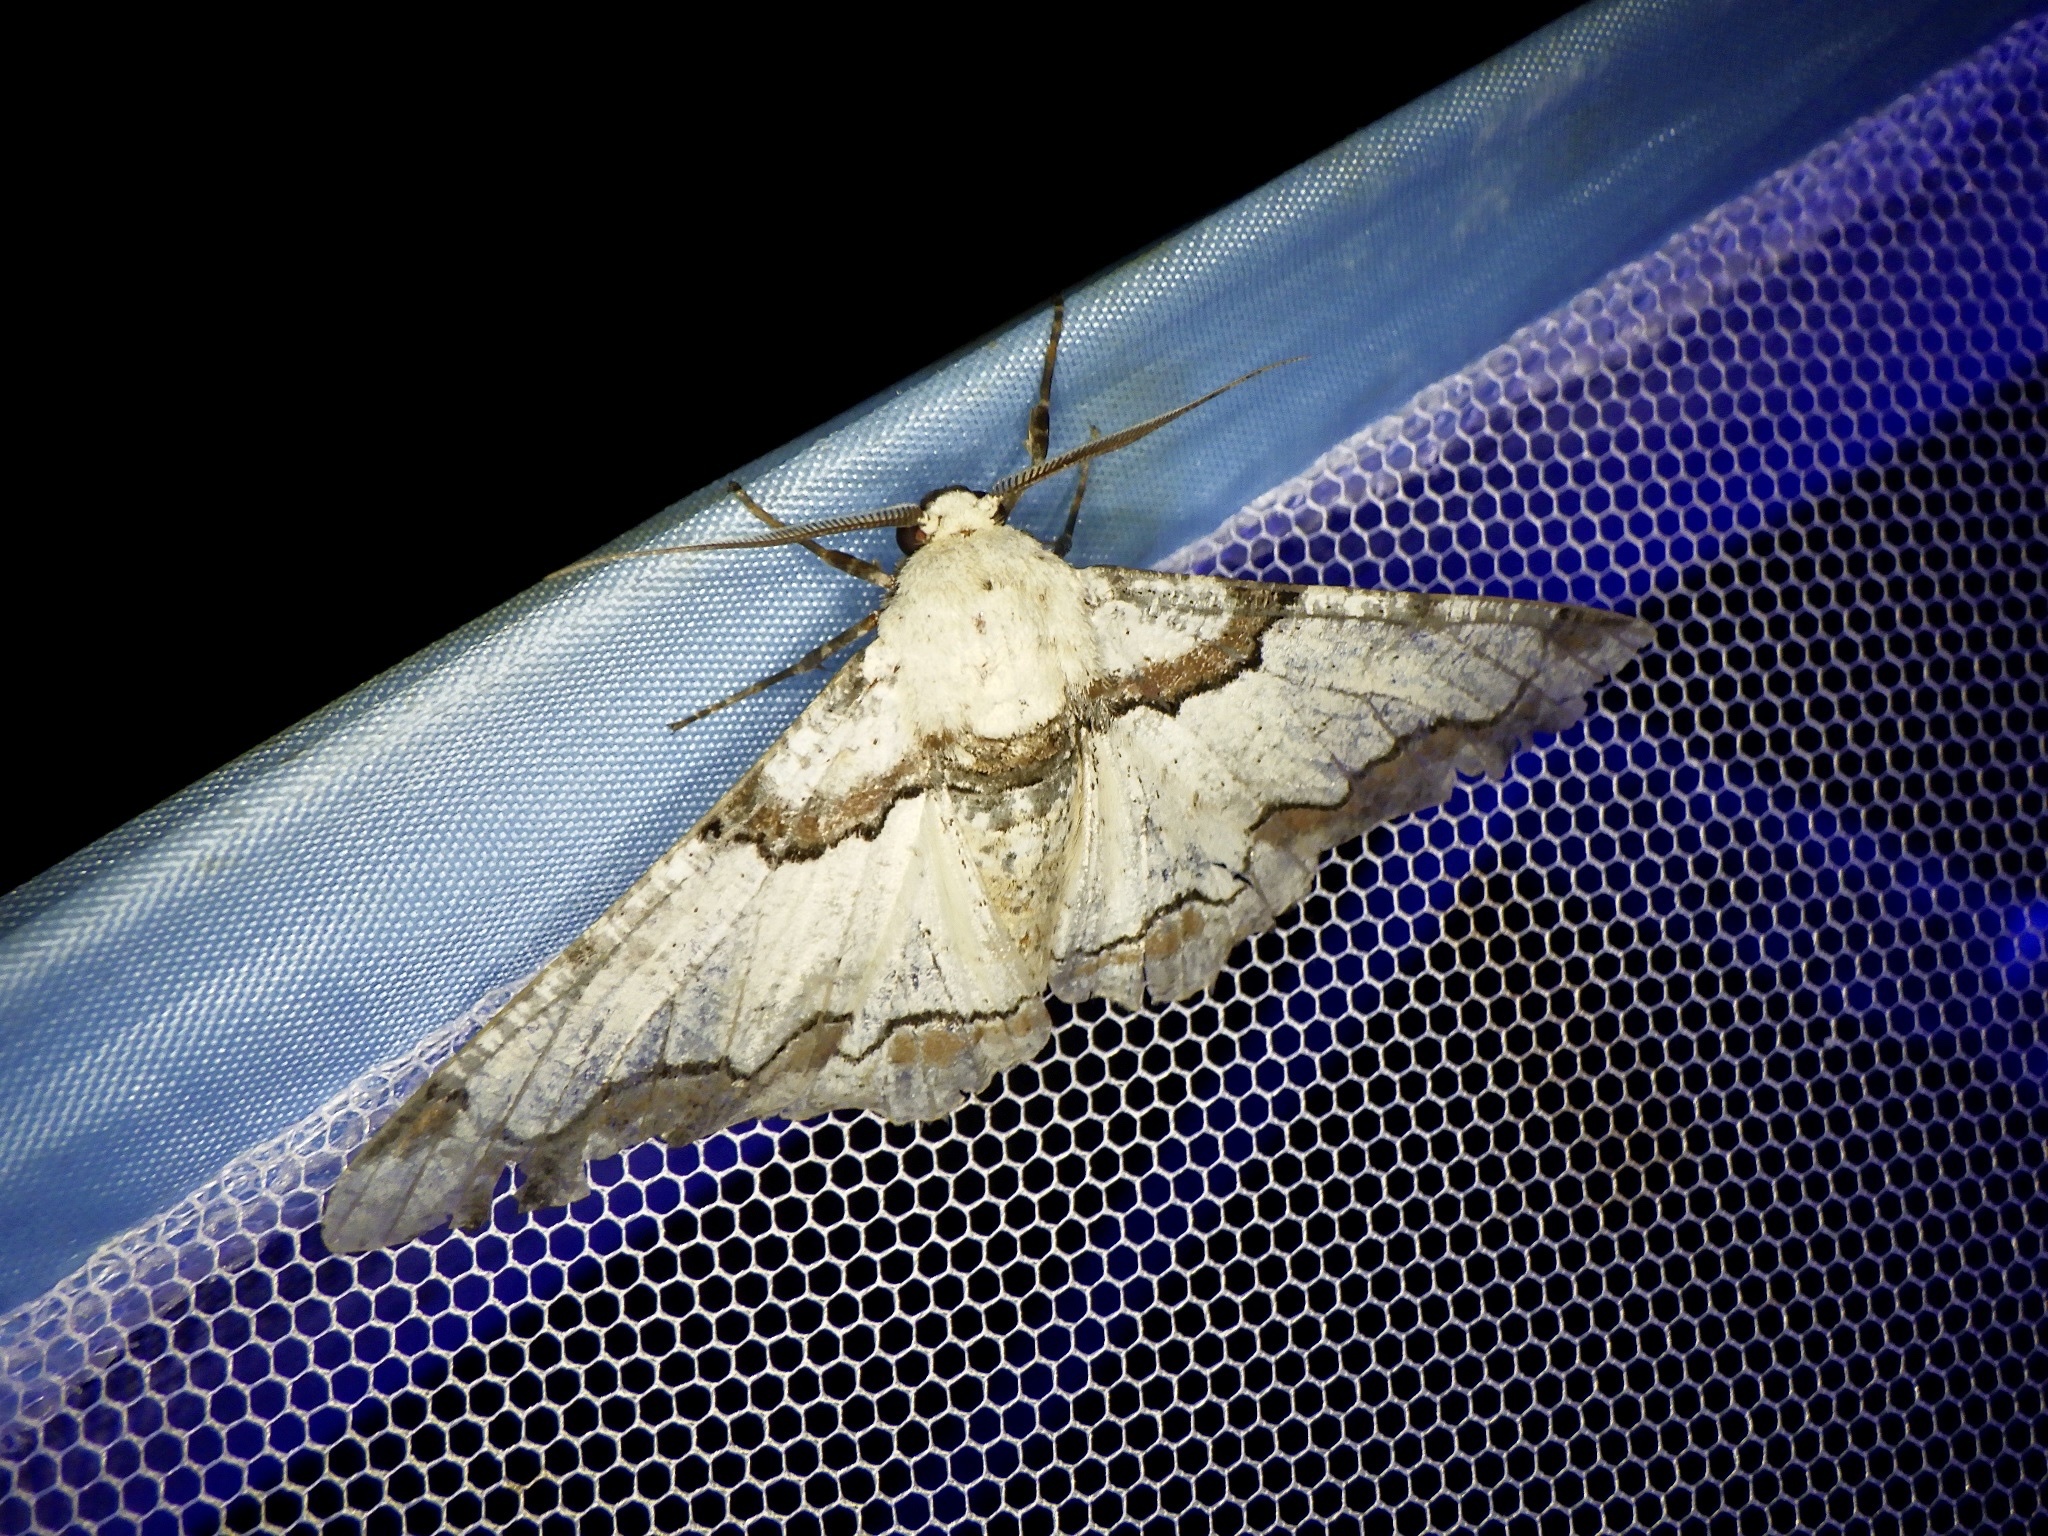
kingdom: Animalia
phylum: Arthropoda
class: Insecta
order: Lepidoptera
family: Geometridae
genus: Biston
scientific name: Biston regalis
